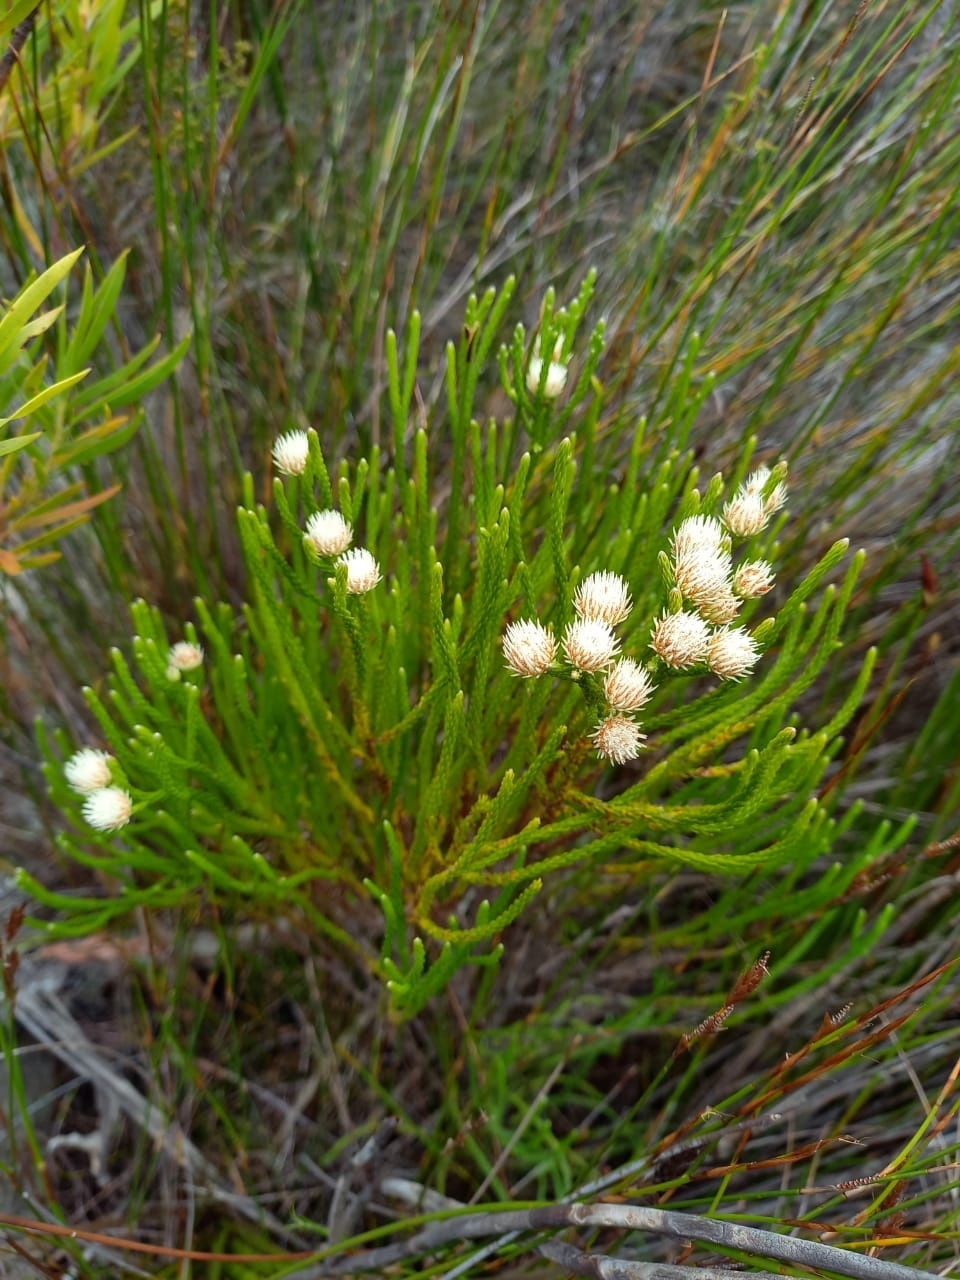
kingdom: Plantae
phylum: Tracheophyta
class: Magnoliopsida
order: Bruniales
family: Bruniaceae
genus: Brunia
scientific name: Brunia paleacea
